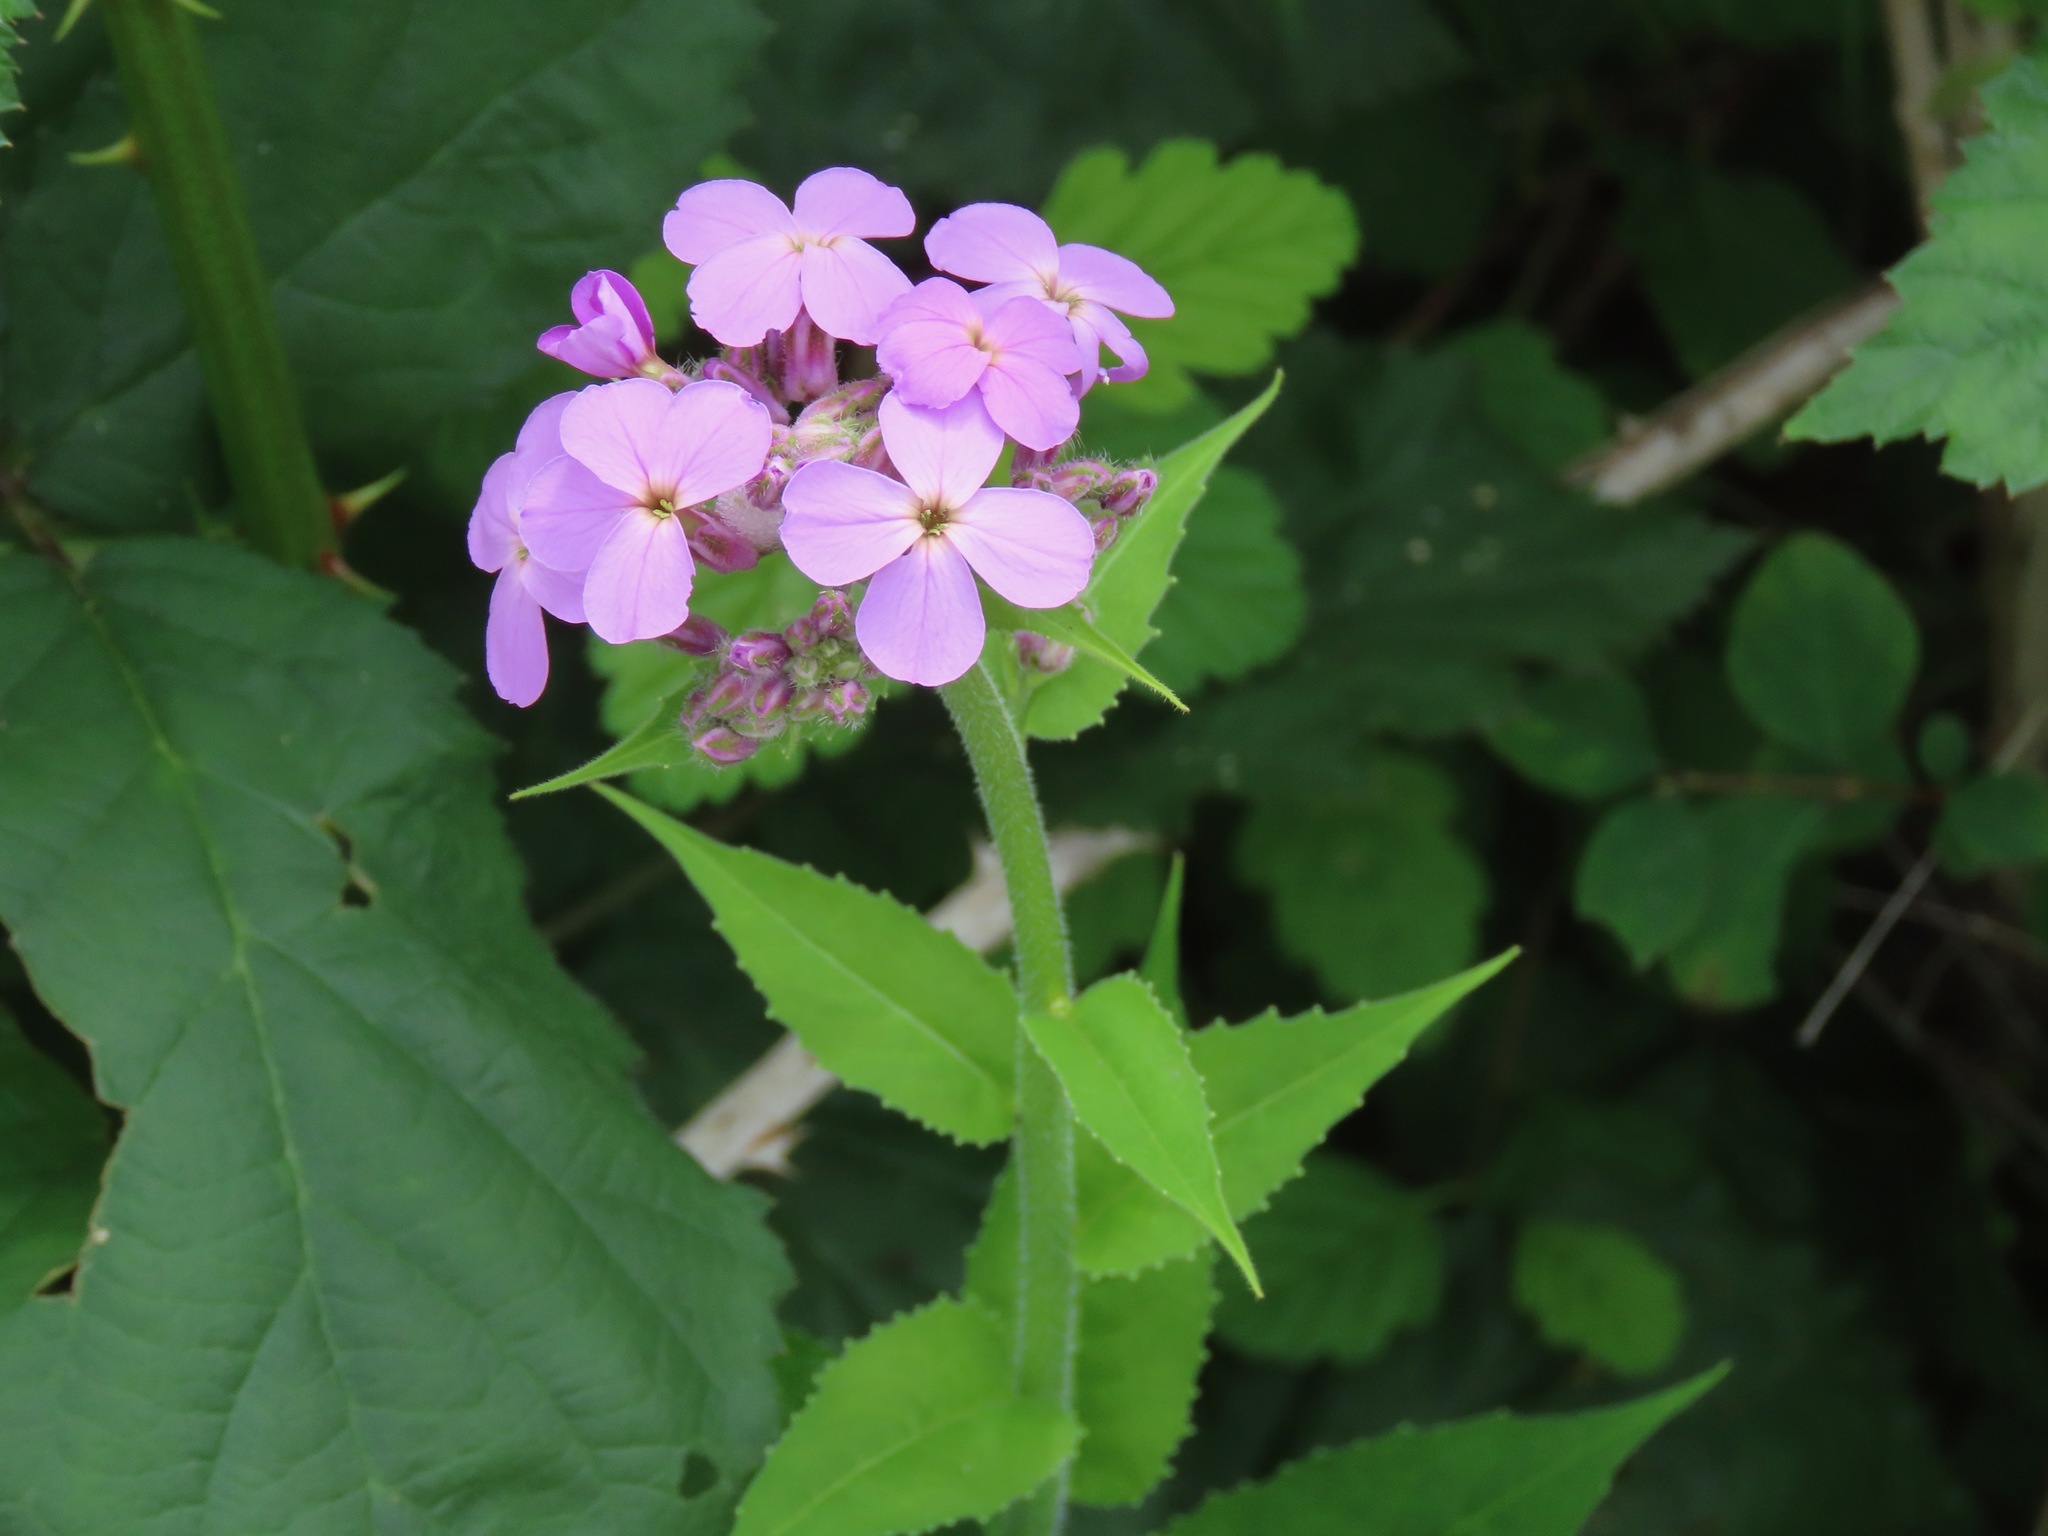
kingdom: Plantae
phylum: Tracheophyta
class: Magnoliopsida
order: Brassicales
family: Brassicaceae
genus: Hesperis
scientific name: Hesperis matronalis
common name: Dame's-violet
